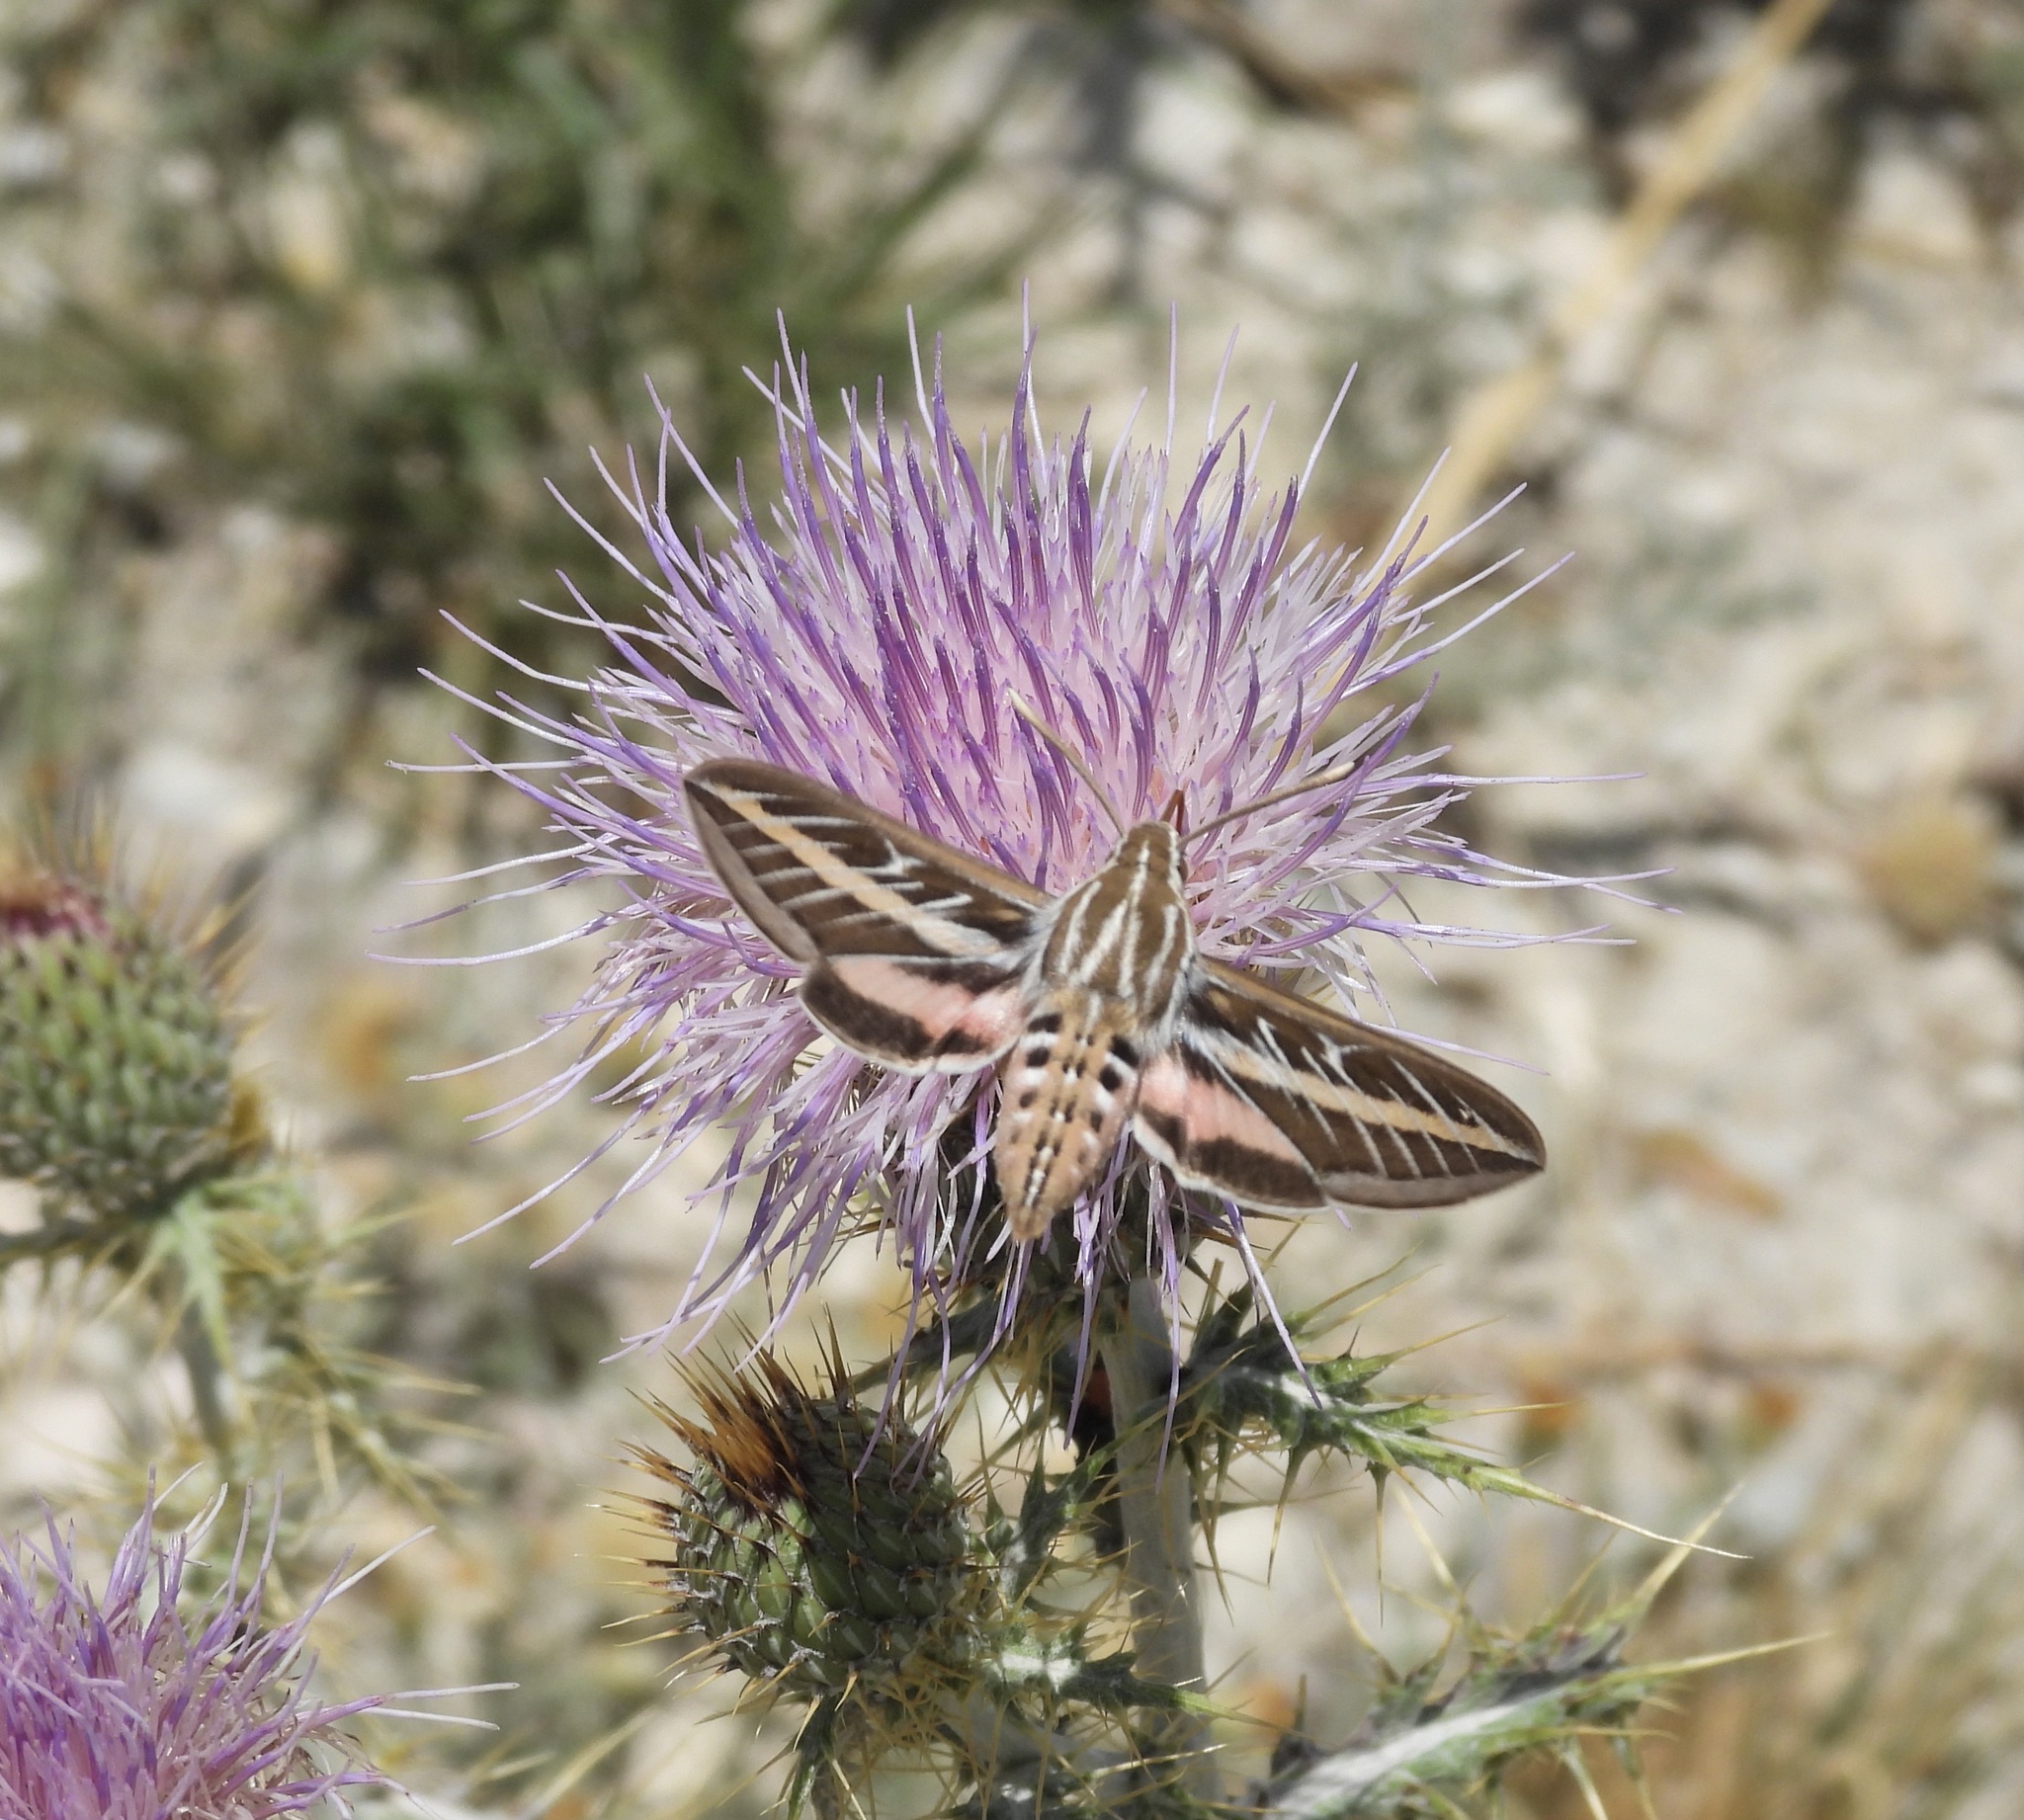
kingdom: Animalia
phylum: Arthropoda
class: Insecta
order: Lepidoptera
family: Sphingidae
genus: Hyles
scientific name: Hyles lineata
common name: White-lined sphinx
